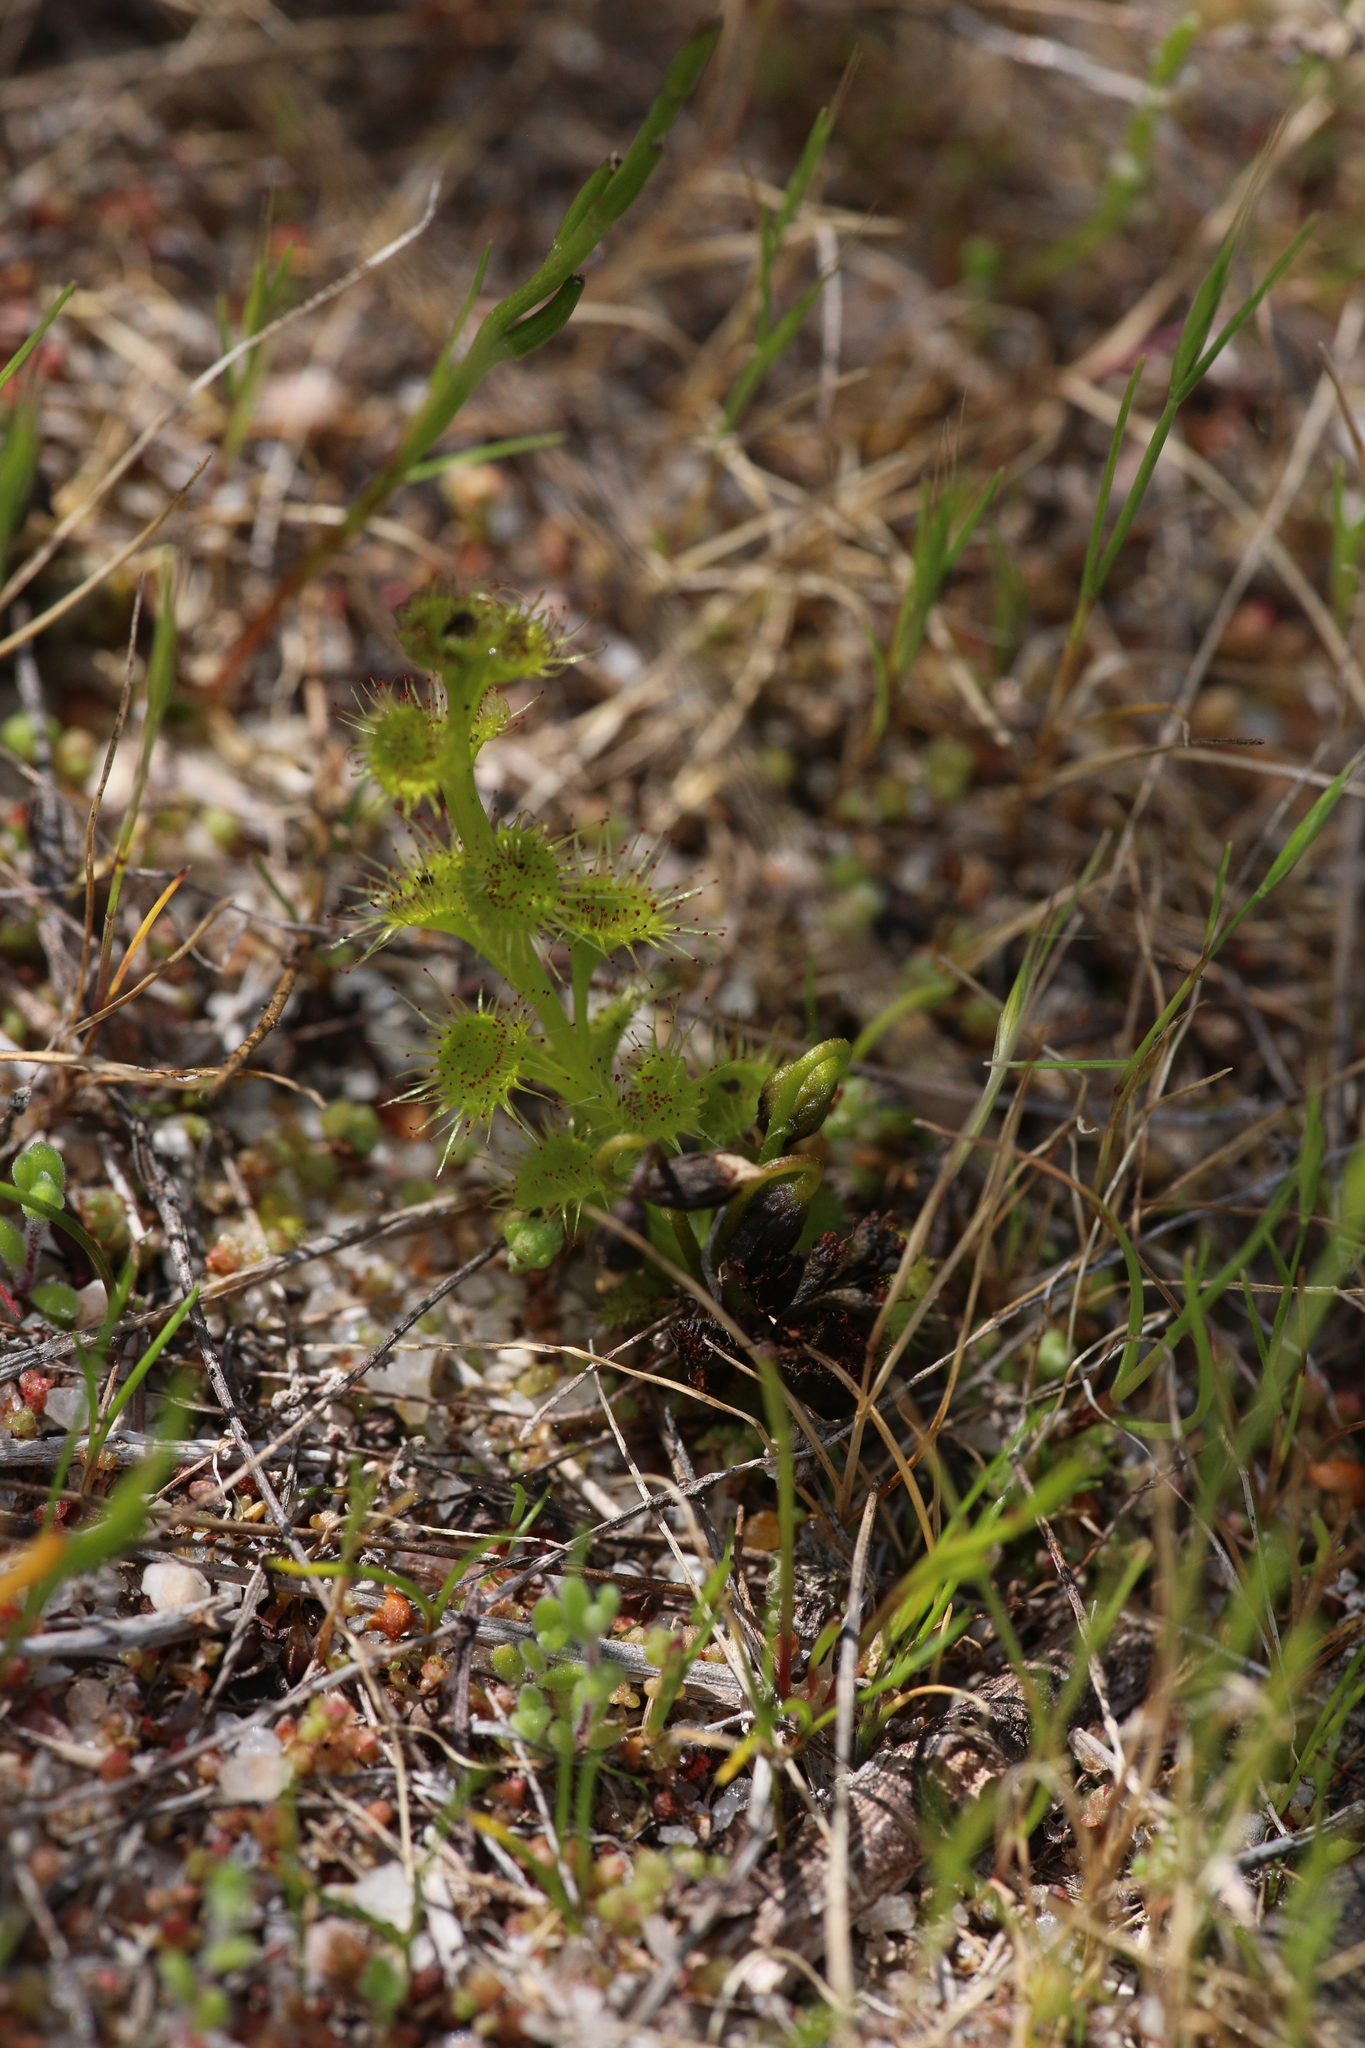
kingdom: Plantae
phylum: Tracheophyta
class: Magnoliopsida
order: Caryophyllales
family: Droseraceae
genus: Drosera
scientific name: Drosera ramellosa
